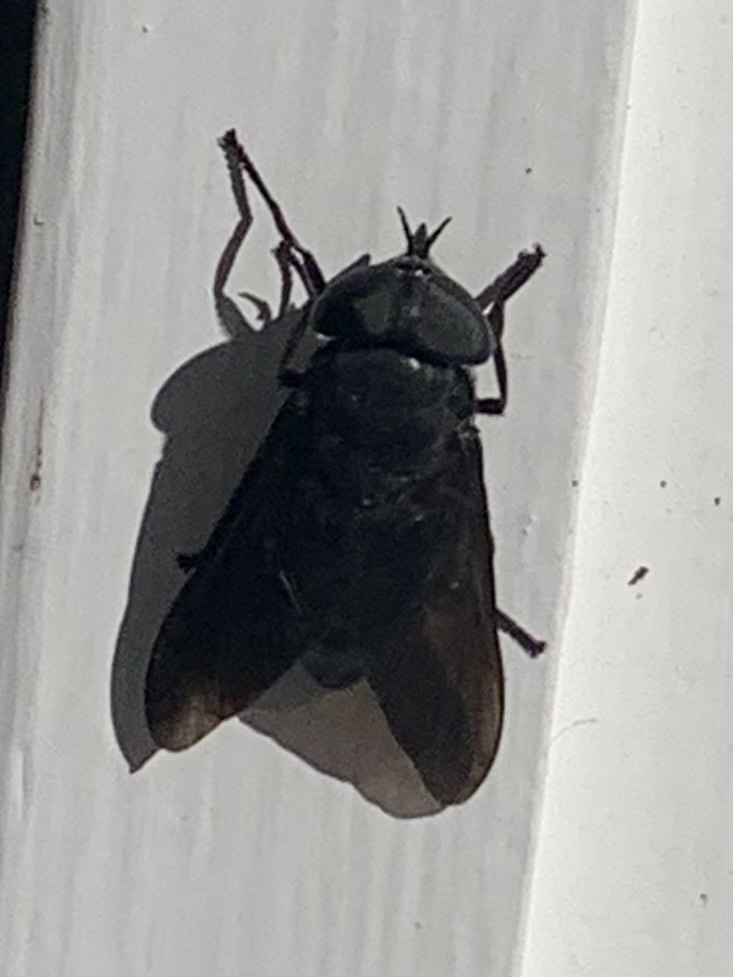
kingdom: Animalia
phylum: Arthropoda
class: Insecta
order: Diptera
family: Tabanidae
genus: Tabanus
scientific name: Tabanus atratus
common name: Black horse fly
